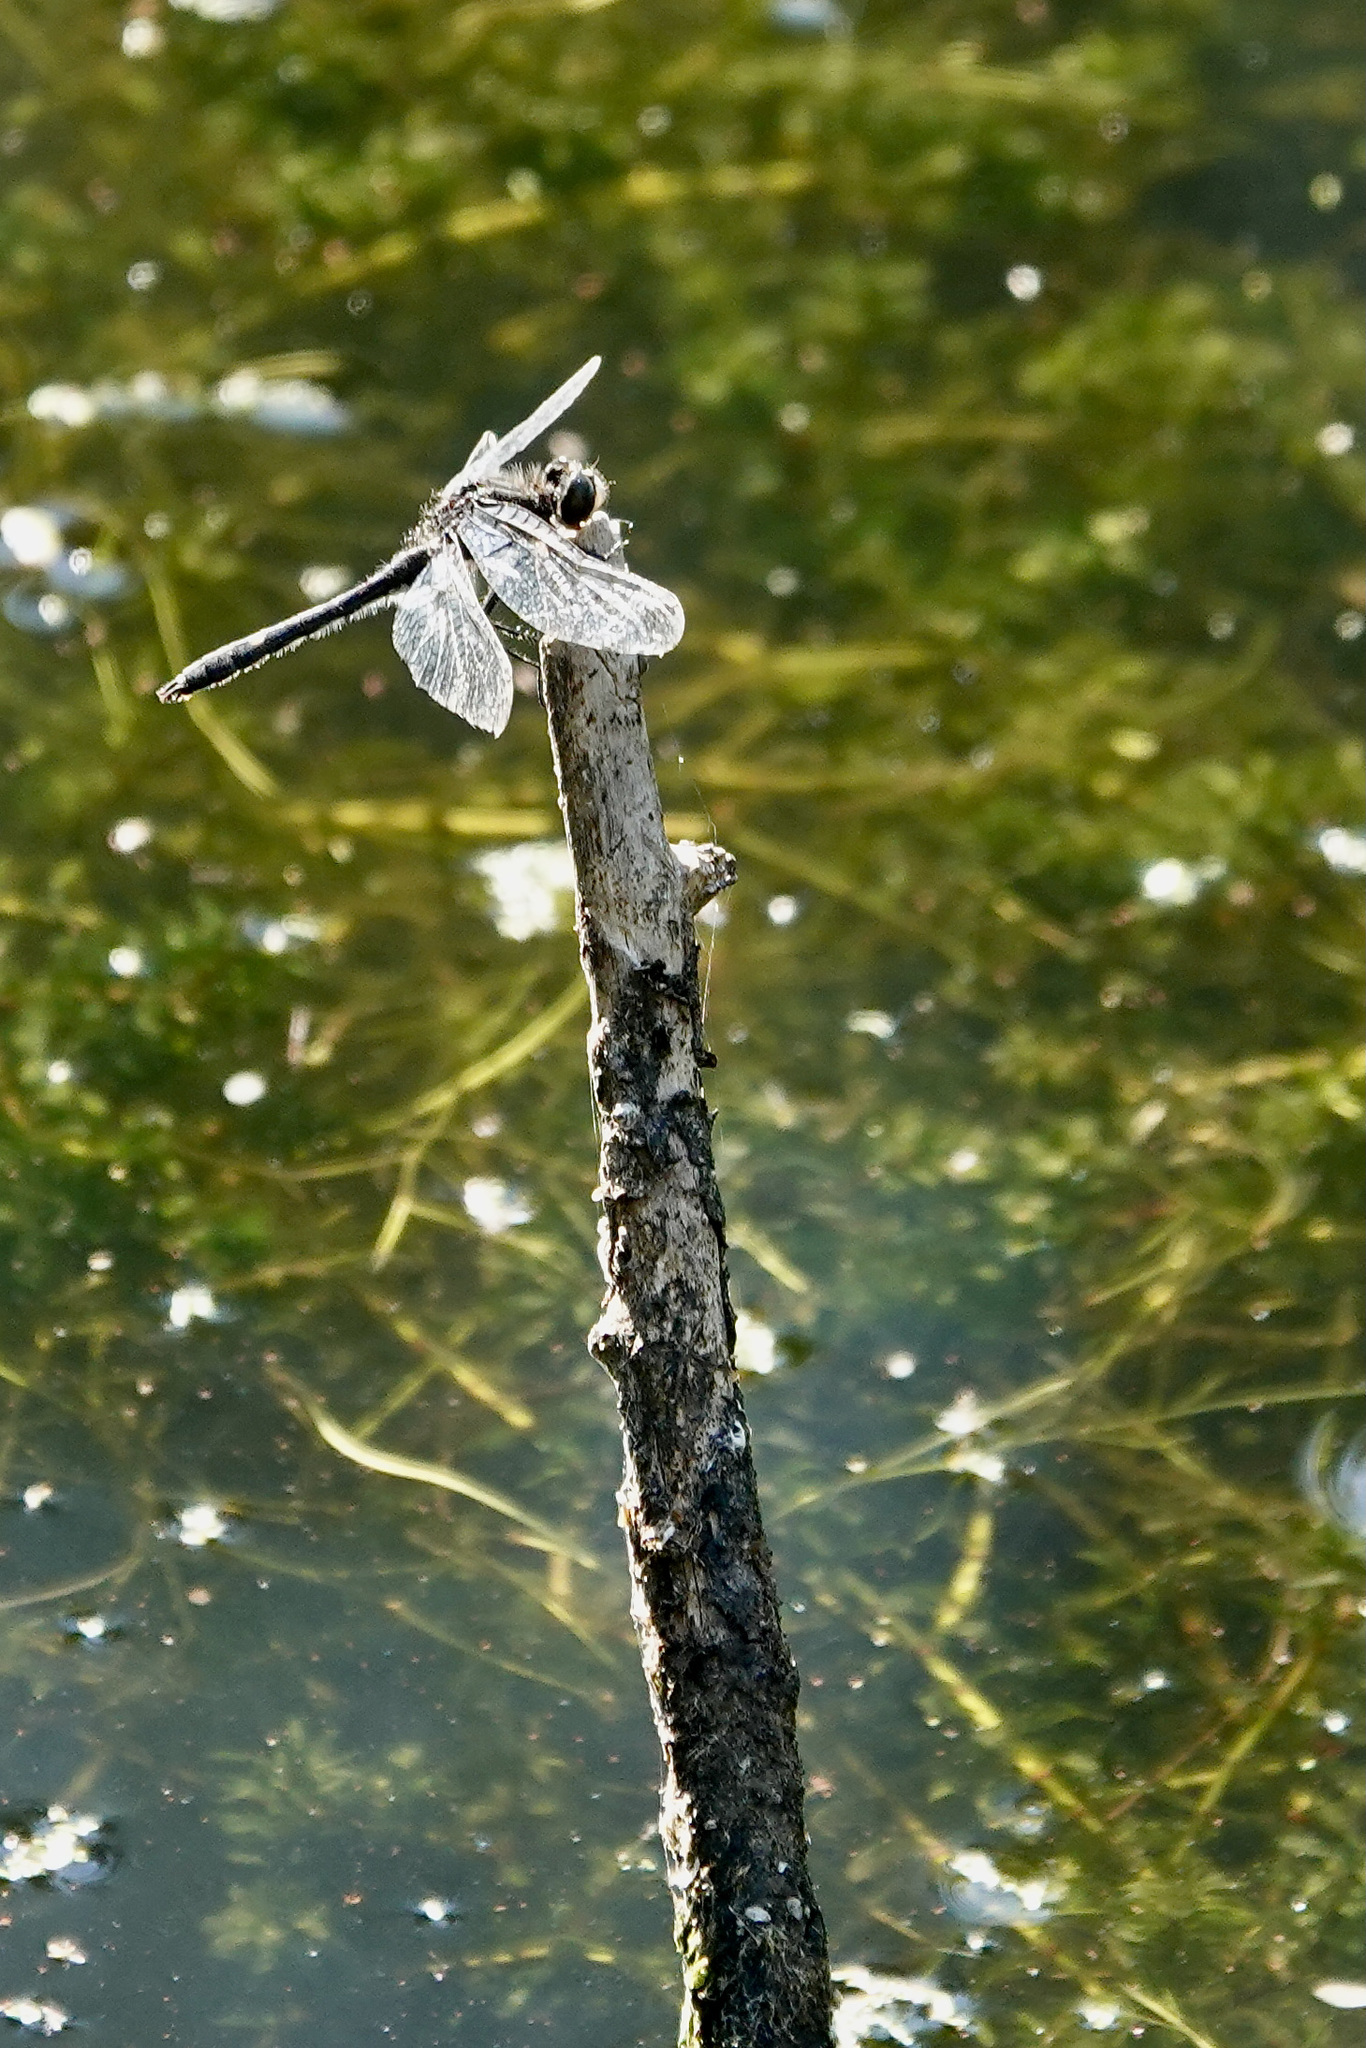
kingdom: Animalia
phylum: Arthropoda
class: Insecta
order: Odonata
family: Libellulidae
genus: Leucorrhinia
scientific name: Leucorrhinia intacta
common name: Dot-tailed whiteface
